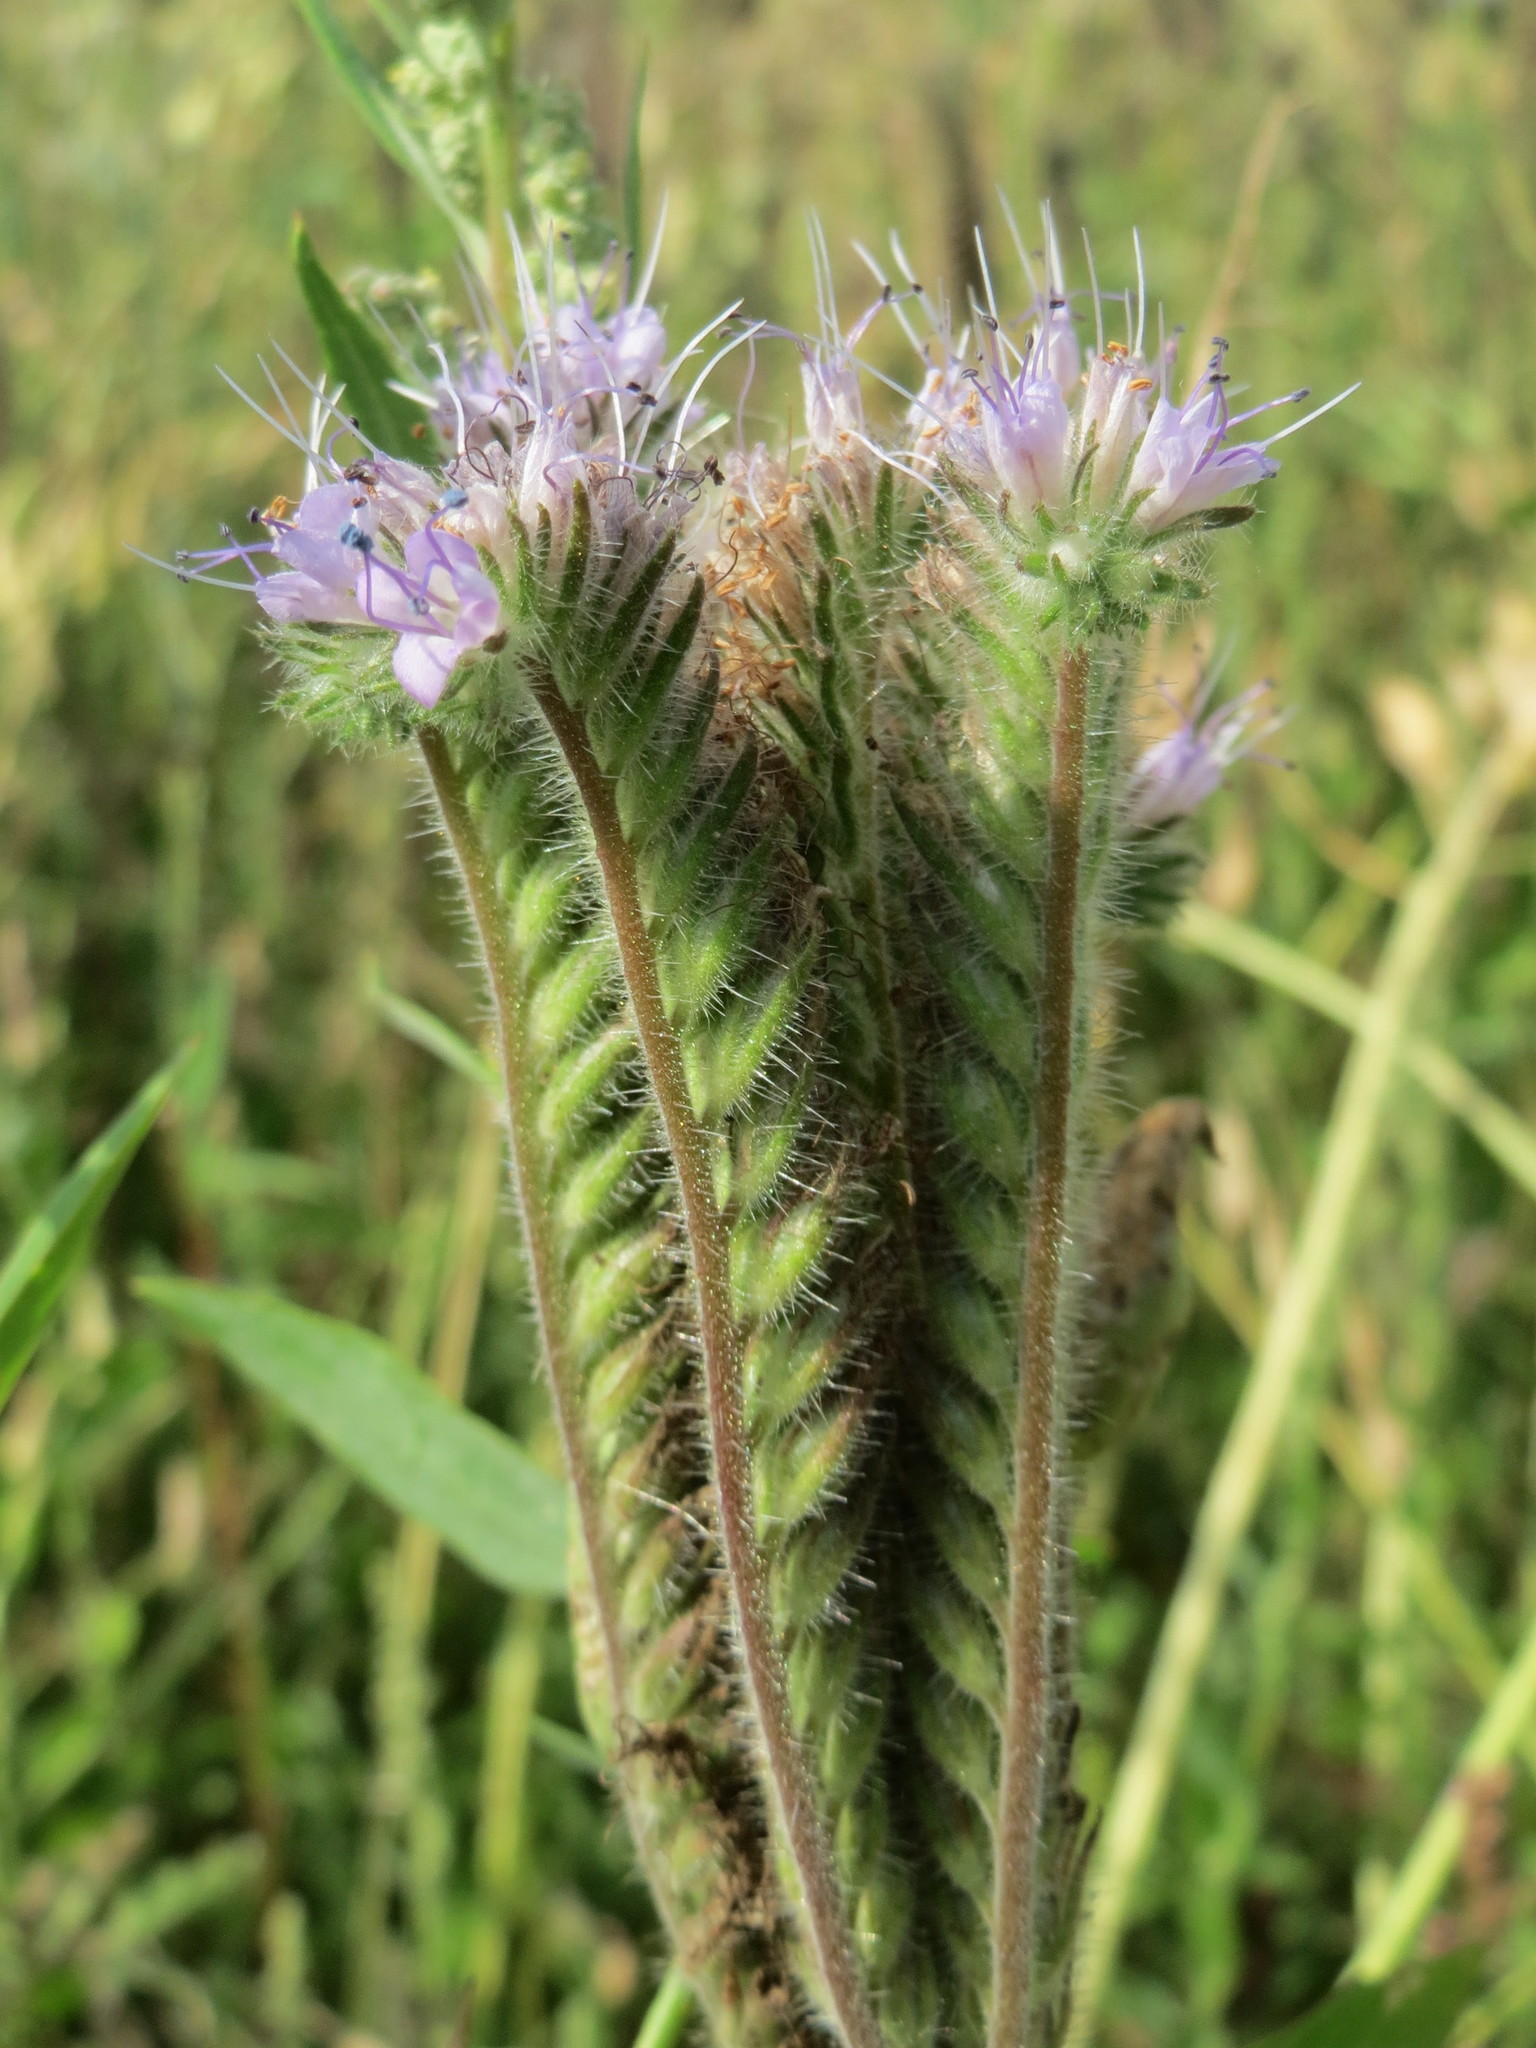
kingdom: Plantae
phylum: Tracheophyta
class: Magnoliopsida
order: Boraginales
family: Hydrophyllaceae
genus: Phacelia
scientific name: Phacelia tanacetifolia
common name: Phacelia
